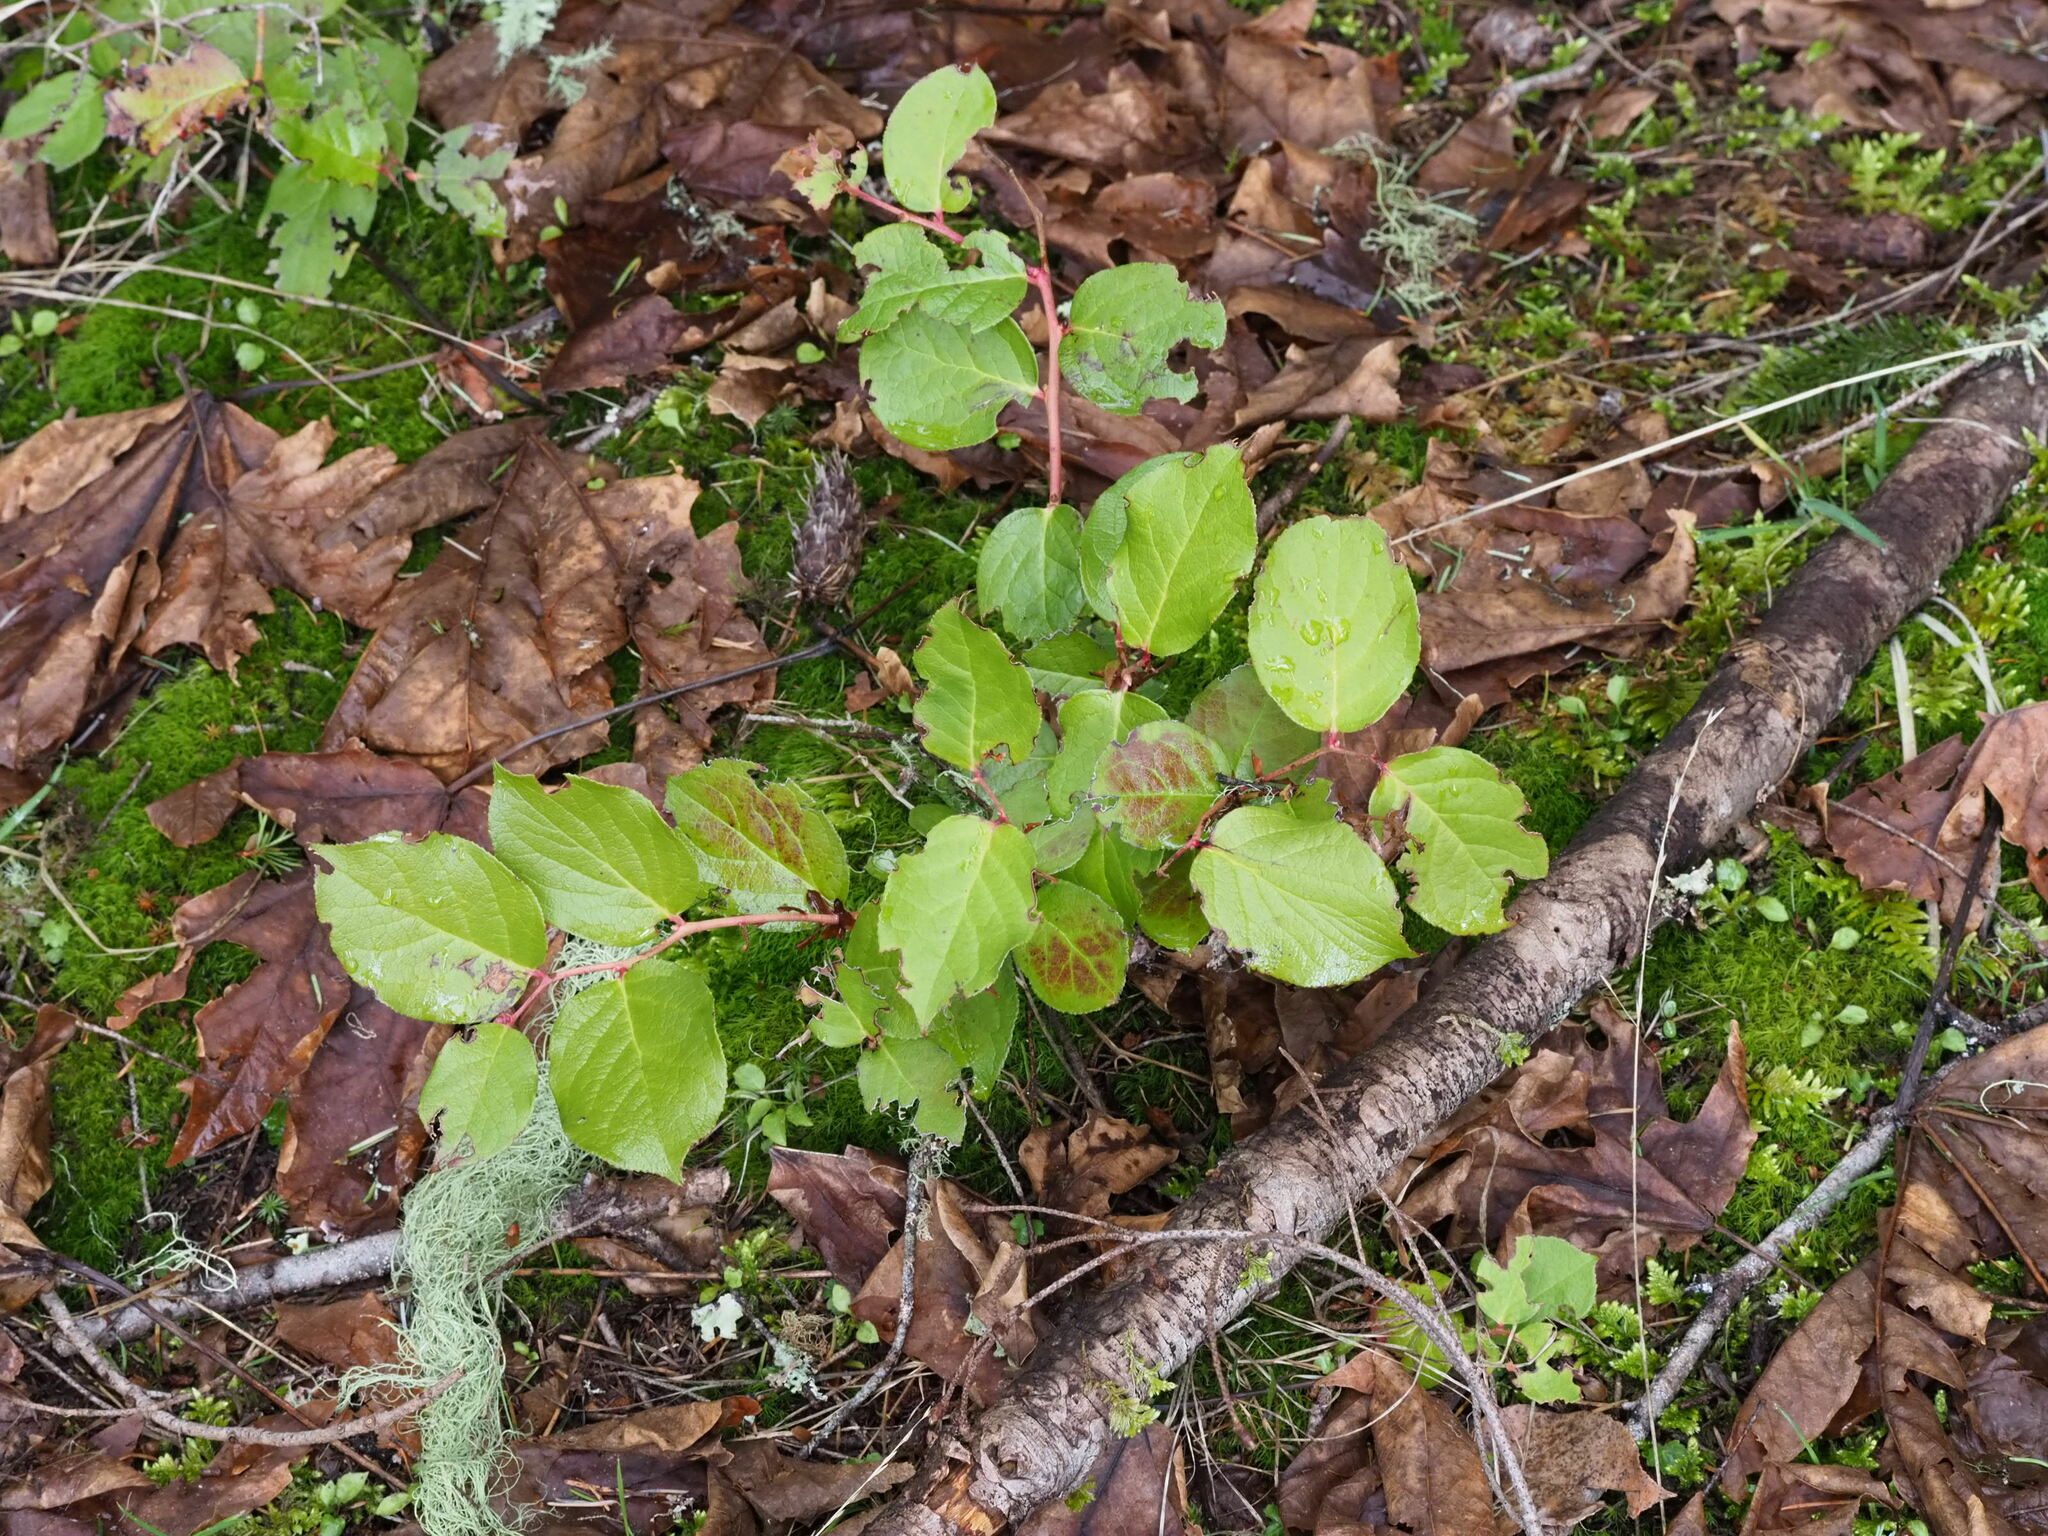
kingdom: Plantae
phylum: Tracheophyta
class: Magnoliopsida
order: Ericales
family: Ericaceae
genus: Gaultheria
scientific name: Gaultheria shallon
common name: Shallon
